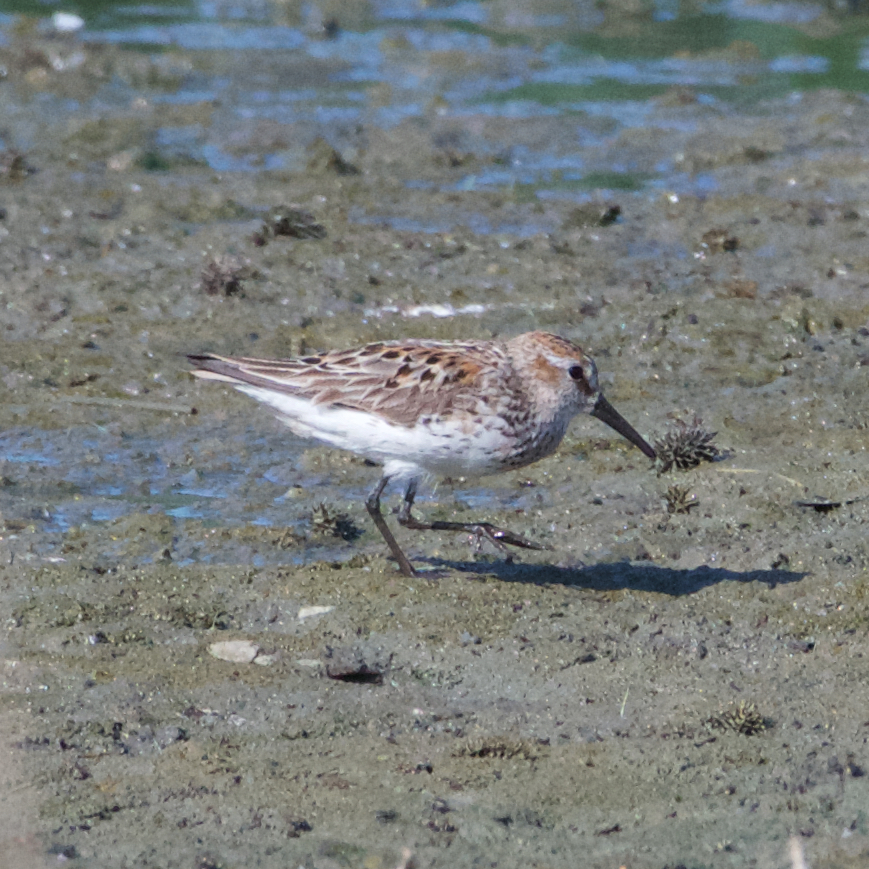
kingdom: Animalia
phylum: Chordata
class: Aves
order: Charadriiformes
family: Scolopacidae
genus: Calidris
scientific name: Calidris mauri
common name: Western sandpiper
